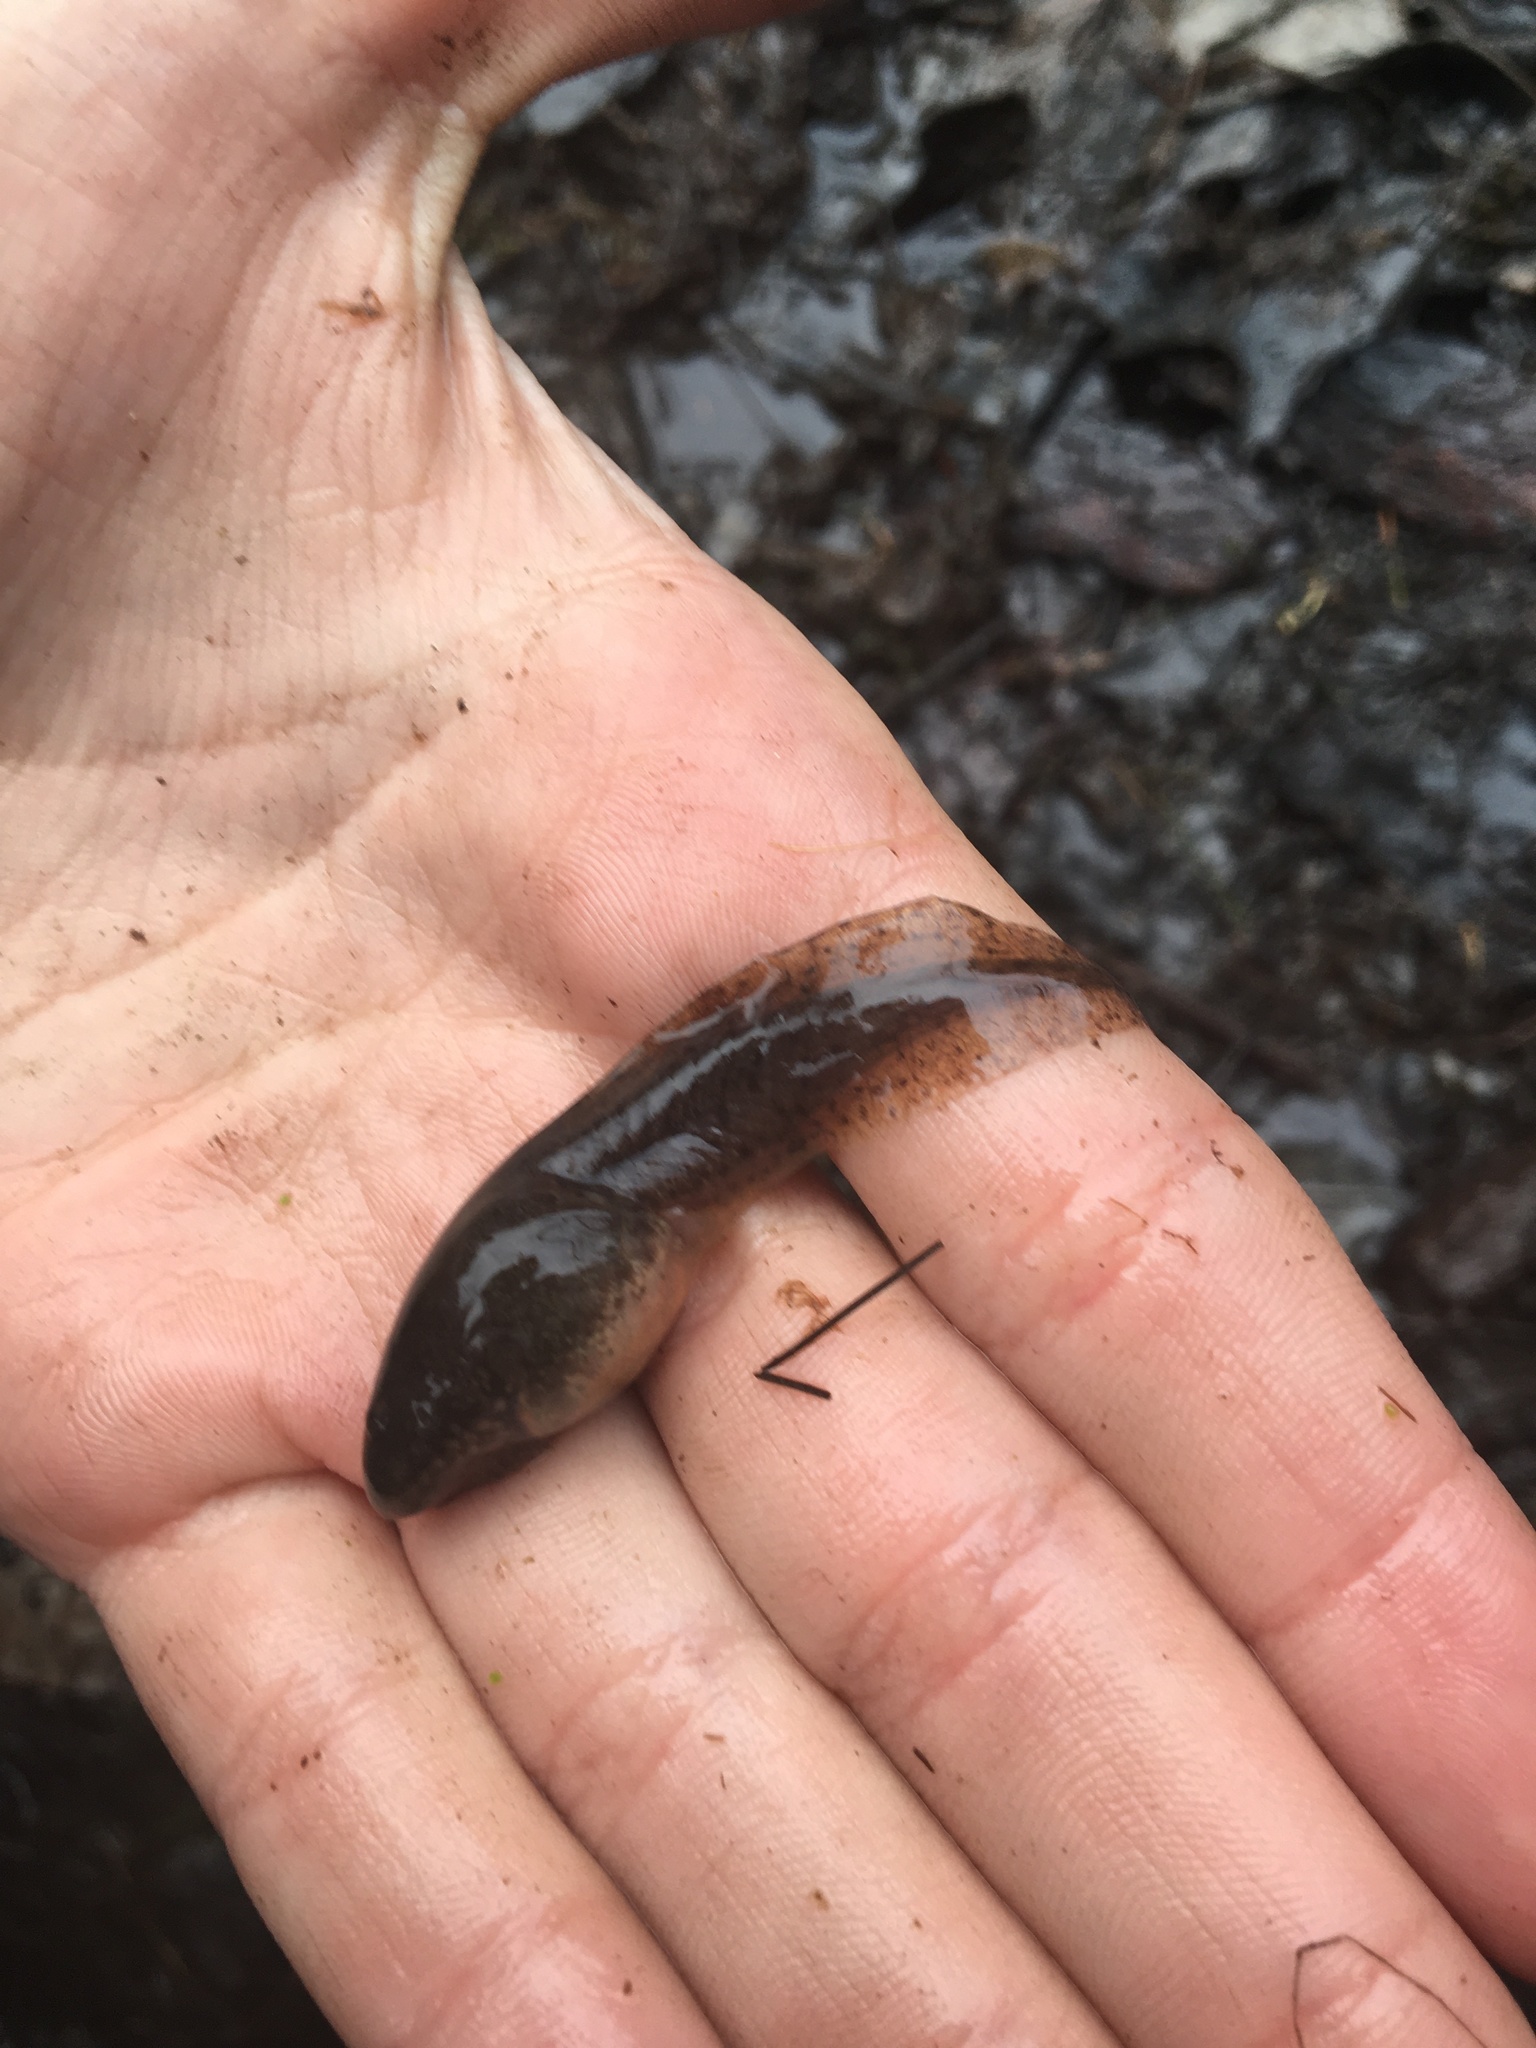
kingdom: Animalia
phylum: Chordata
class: Amphibia
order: Anura
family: Ranidae
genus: Lithobates
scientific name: Lithobates catesbeianus
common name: American bullfrog
